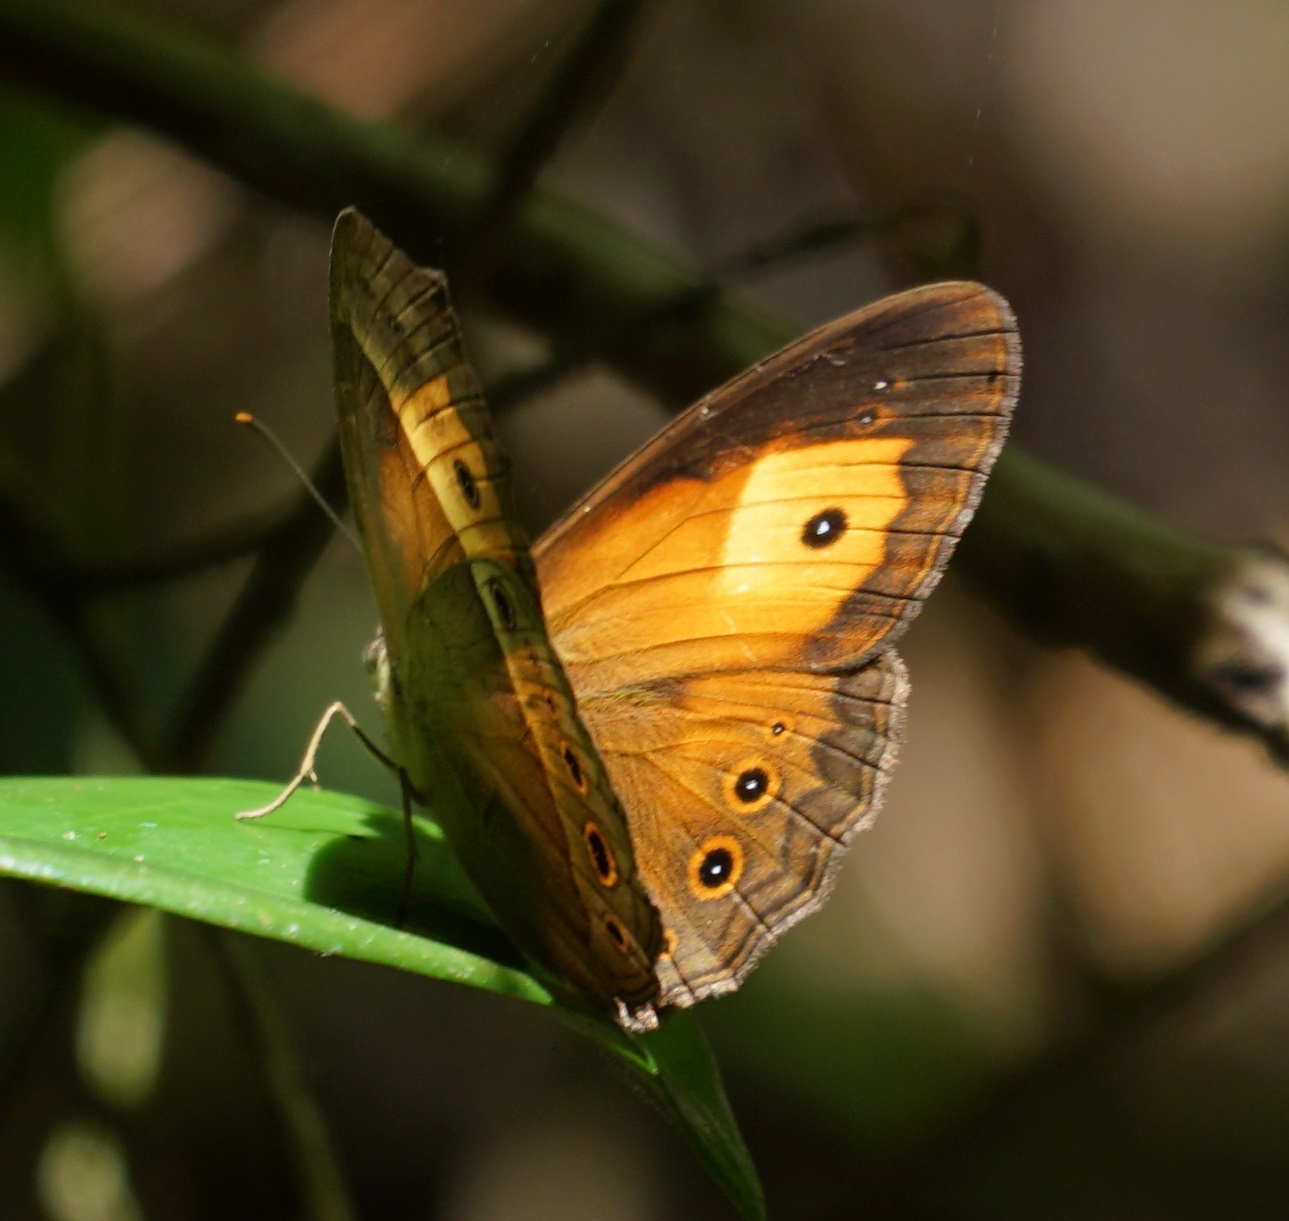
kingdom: Animalia
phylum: Arthropoda
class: Insecta
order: Lepidoptera
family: Nymphalidae
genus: Mycalesis
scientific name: Mycalesis terminus
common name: Orange bushbrown
